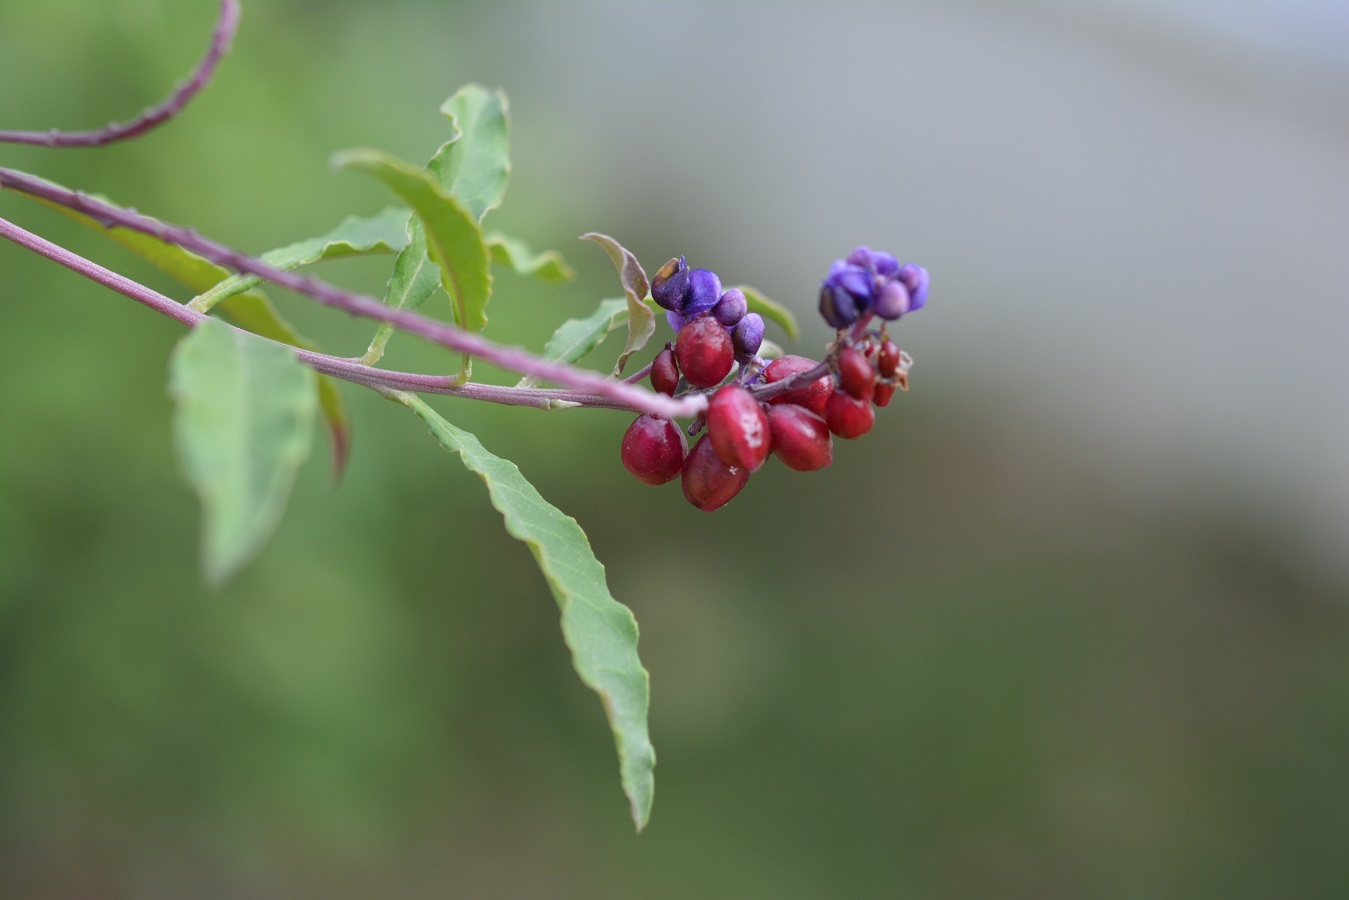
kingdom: Plantae
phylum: Tracheophyta
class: Magnoliopsida
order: Fabales
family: Polygalaceae
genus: Monnina
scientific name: Monnina xalapensis
